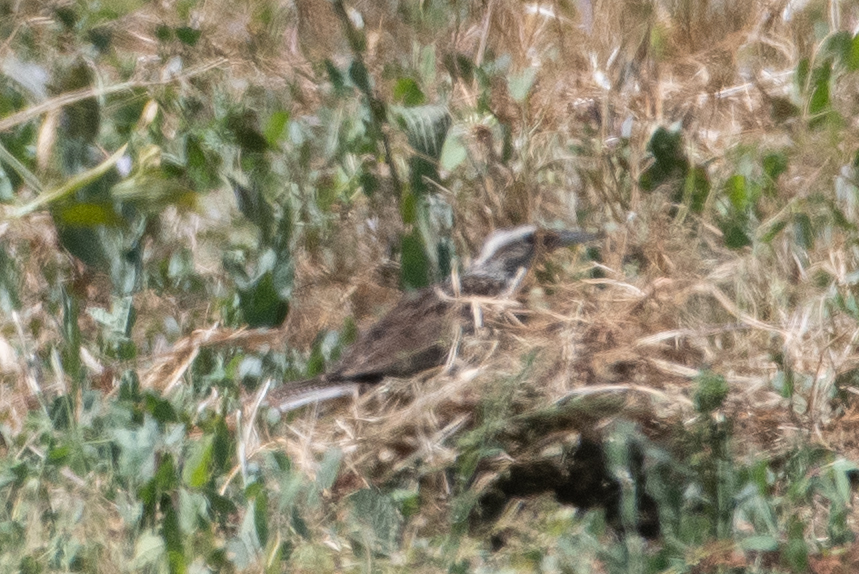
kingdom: Animalia
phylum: Chordata
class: Aves
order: Passeriformes
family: Icteridae
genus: Sturnella
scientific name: Sturnella neglecta
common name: Western meadowlark
